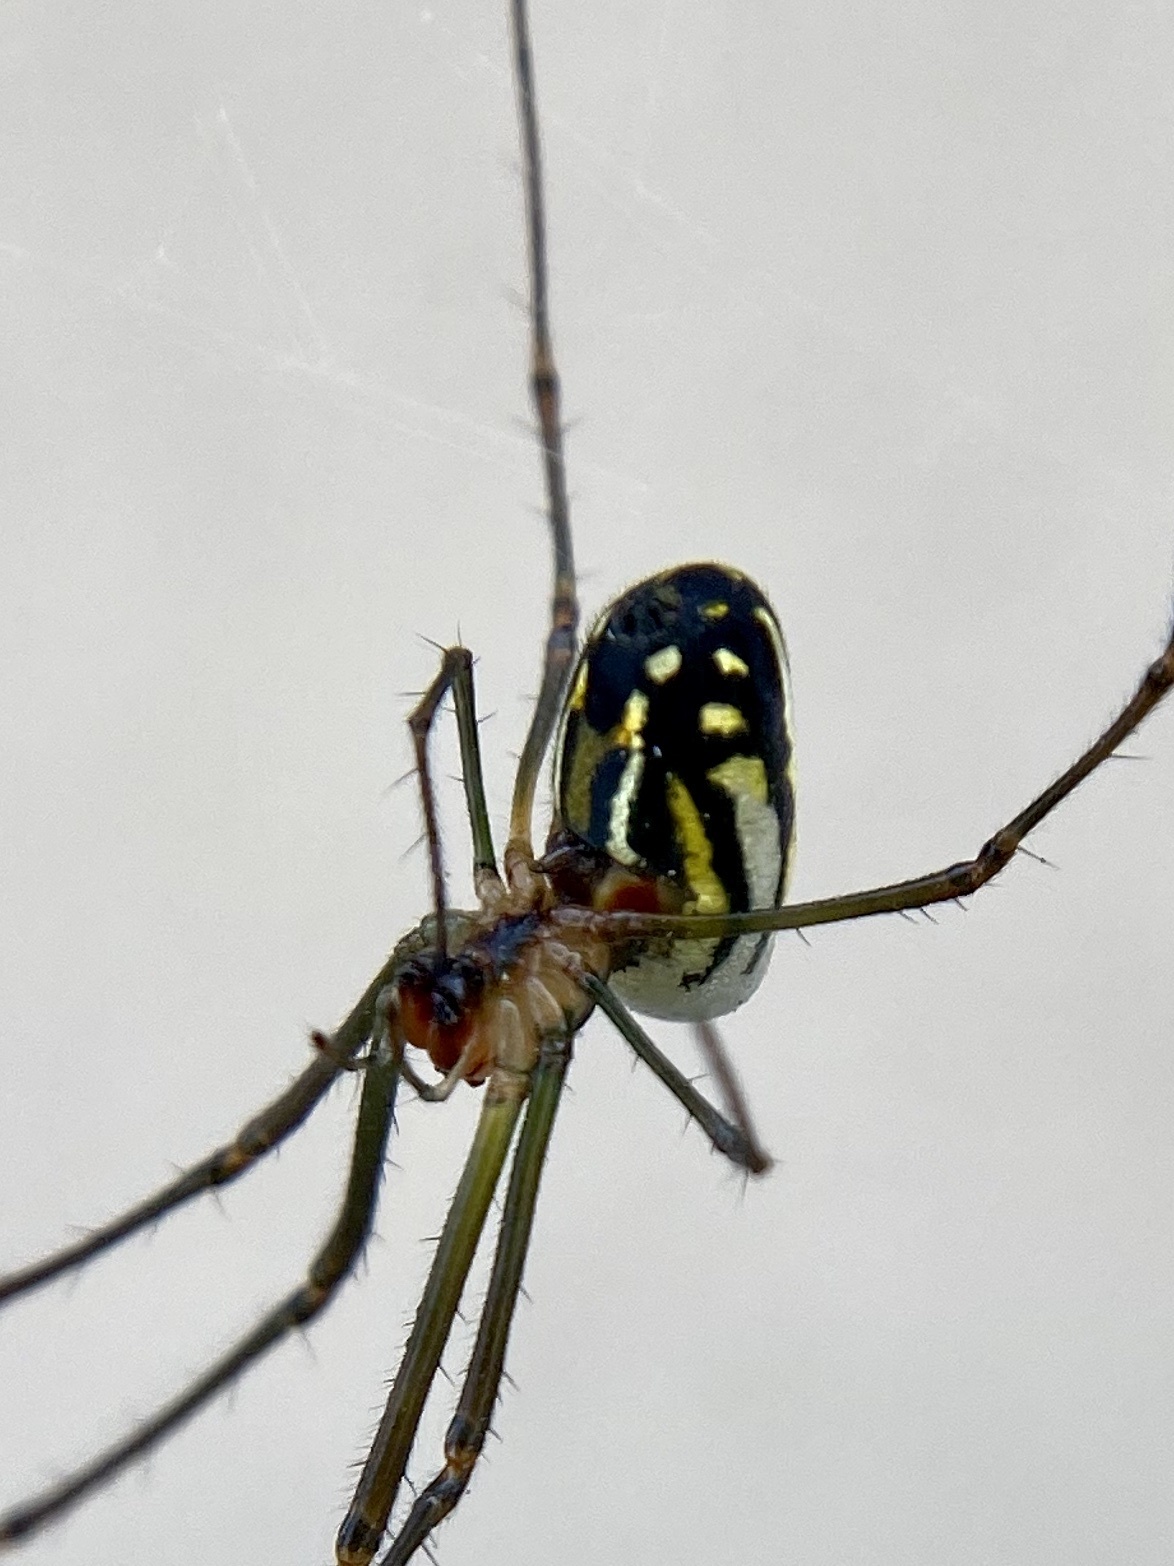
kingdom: Animalia
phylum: Arthropoda
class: Arachnida
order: Araneae
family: Tetragnathidae
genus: Leucauge
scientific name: Leucauge argyra
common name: Longjawed orb weavers
